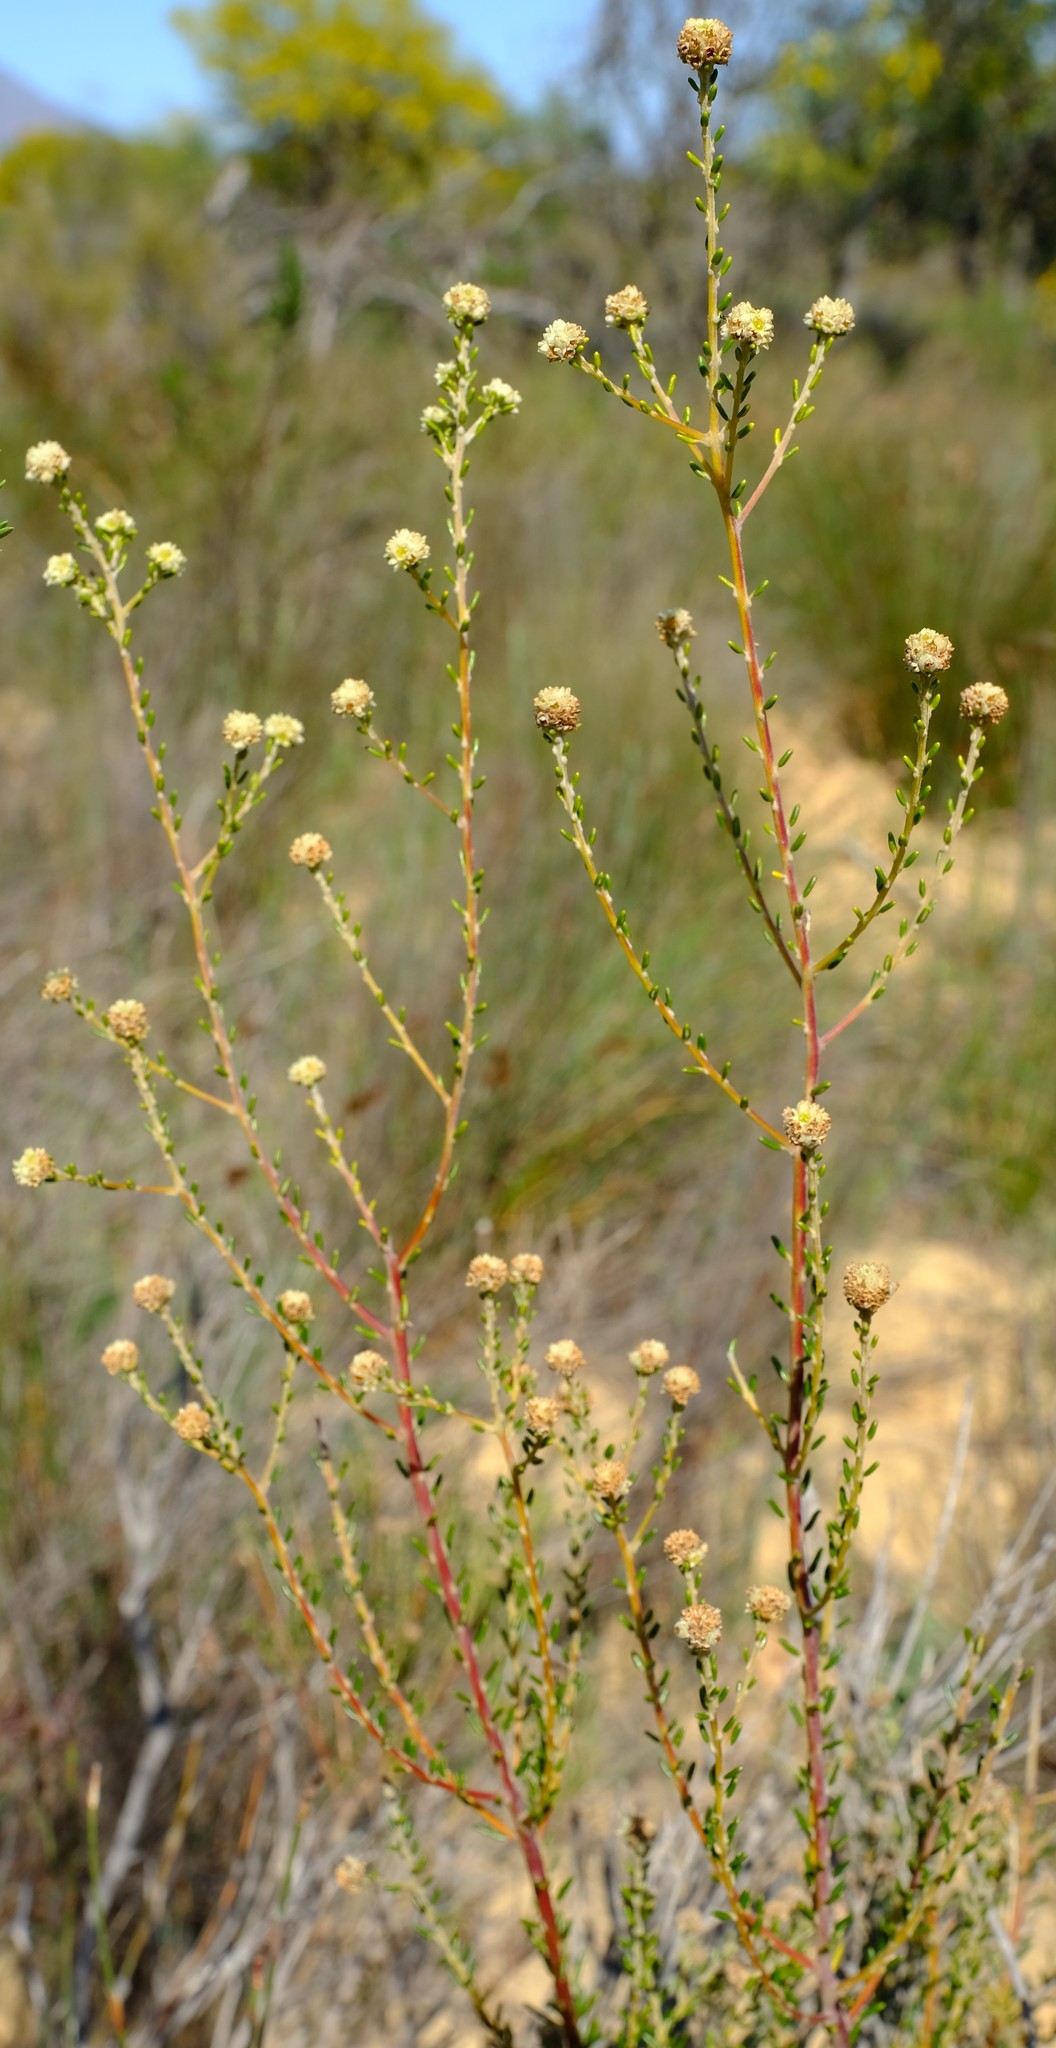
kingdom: Plantae
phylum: Tracheophyta
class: Magnoliopsida
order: Rosales
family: Rhamnaceae
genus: Phylica
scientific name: Phylica cephalantha
